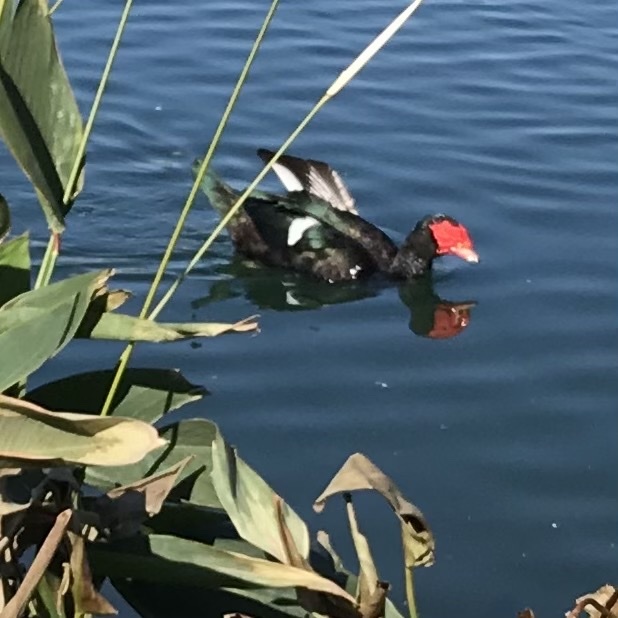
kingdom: Animalia
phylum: Chordata
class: Aves
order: Anseriformes
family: Anatidae
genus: Cairina
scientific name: Cairina moschata
